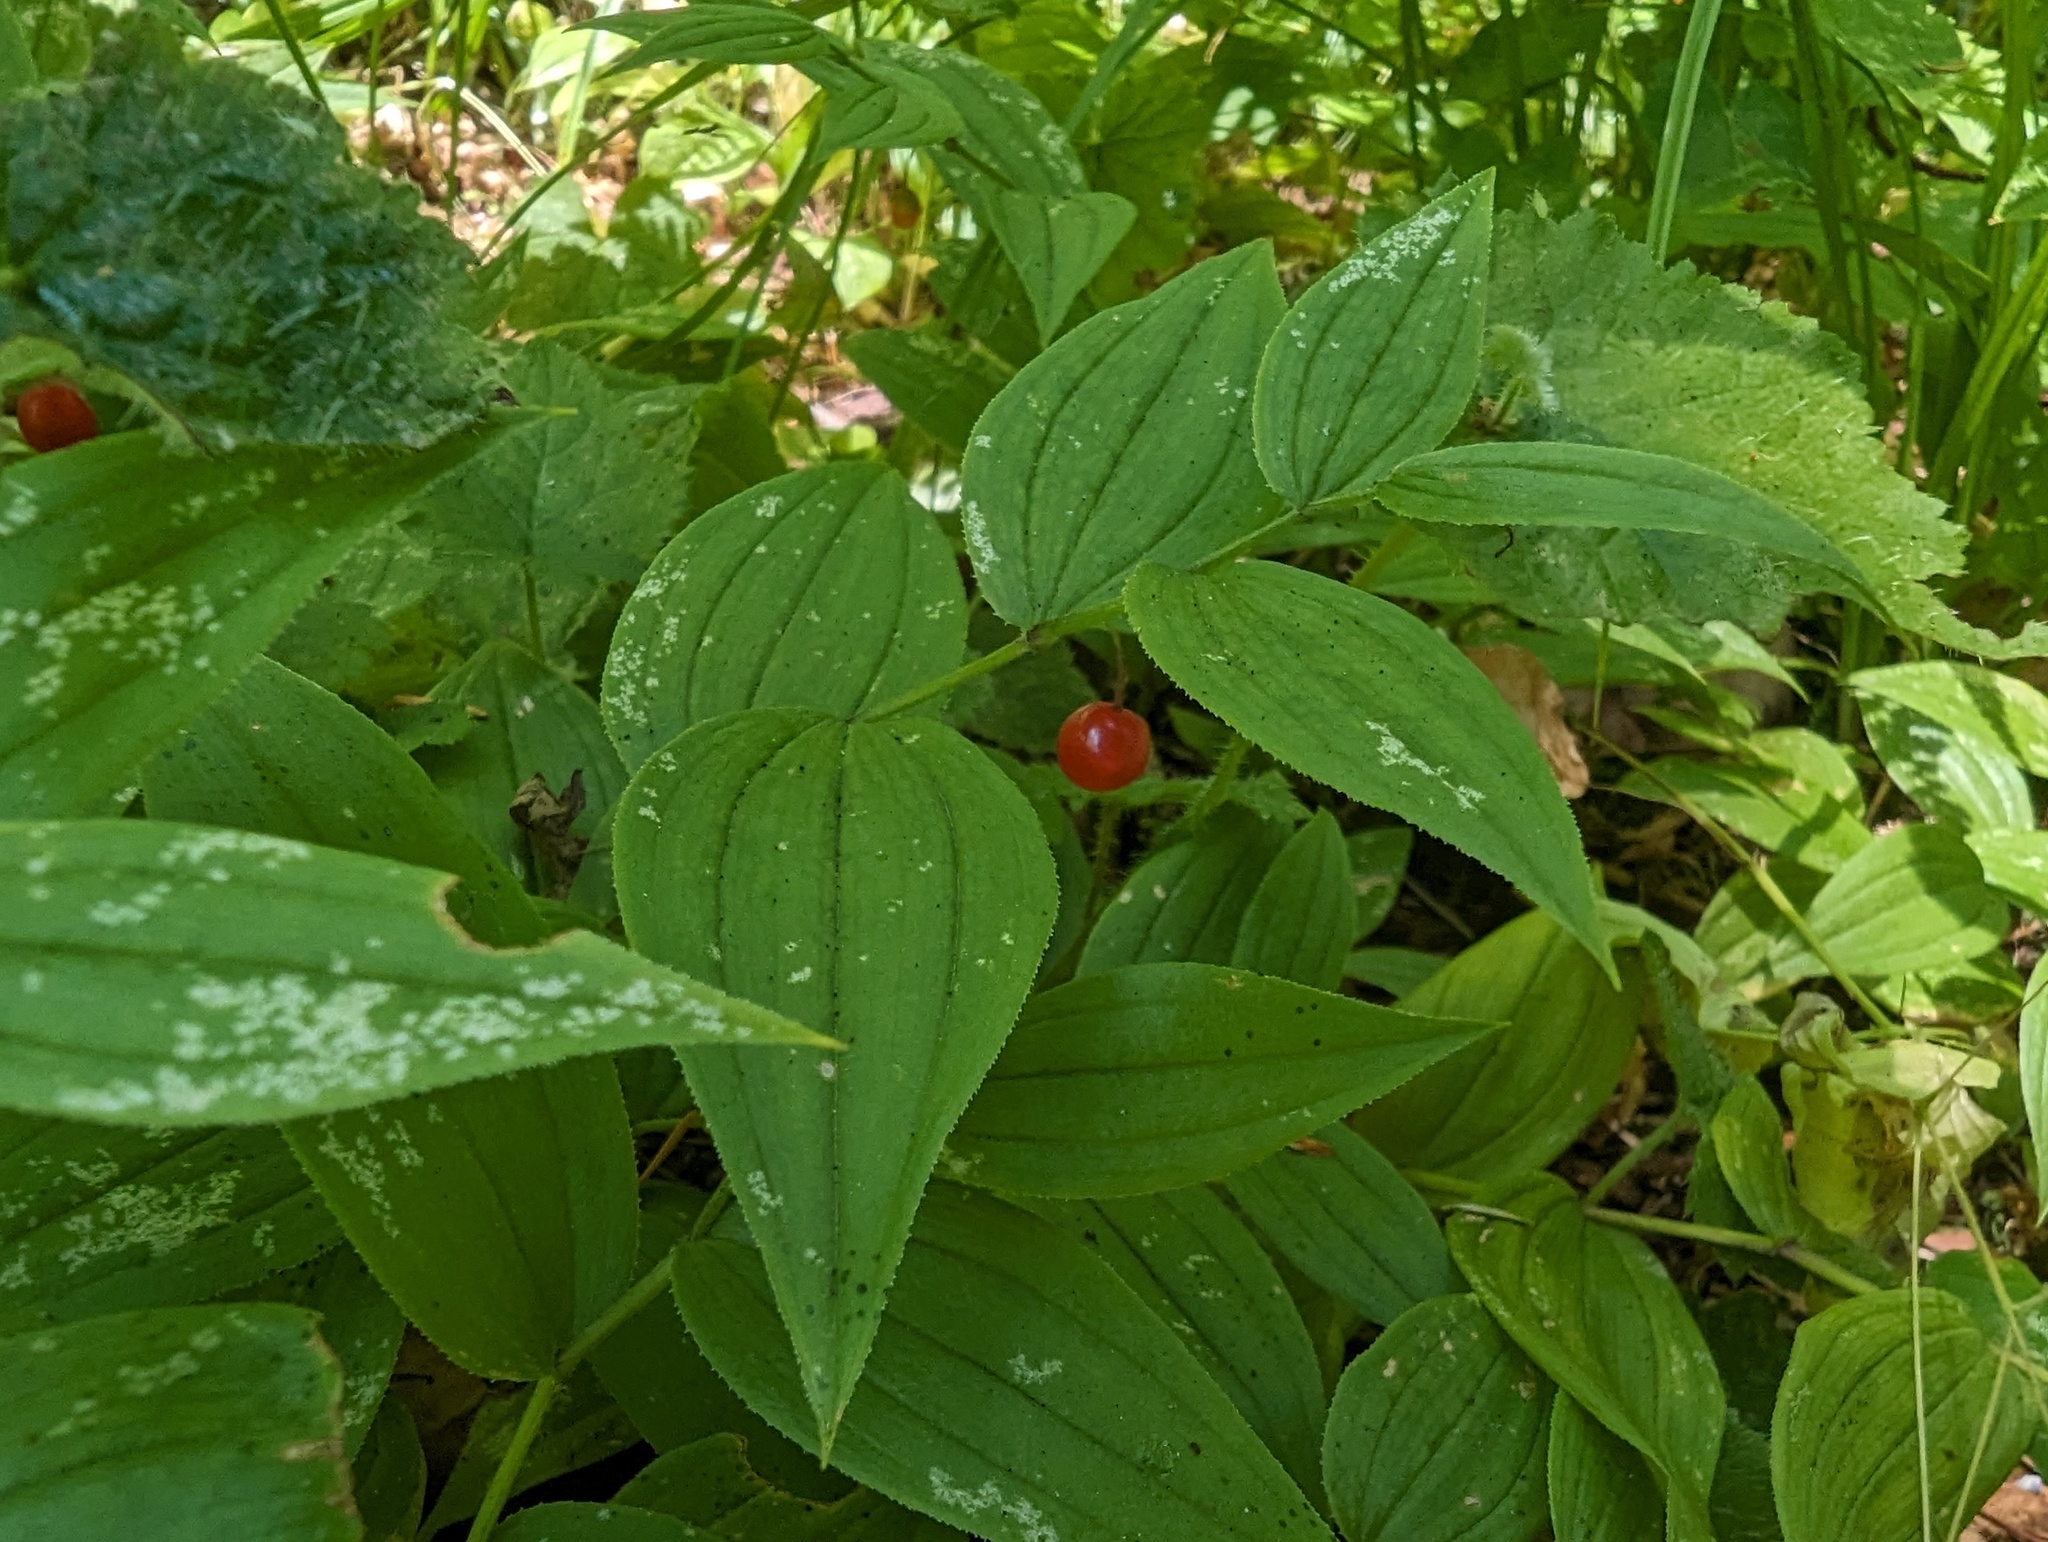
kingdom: Plantae
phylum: Tracheophyta
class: Liliopsida
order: Liliales
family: Liliaceae
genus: Streptopus
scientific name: Streptopus lanceolatus
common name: Rose mandarin
